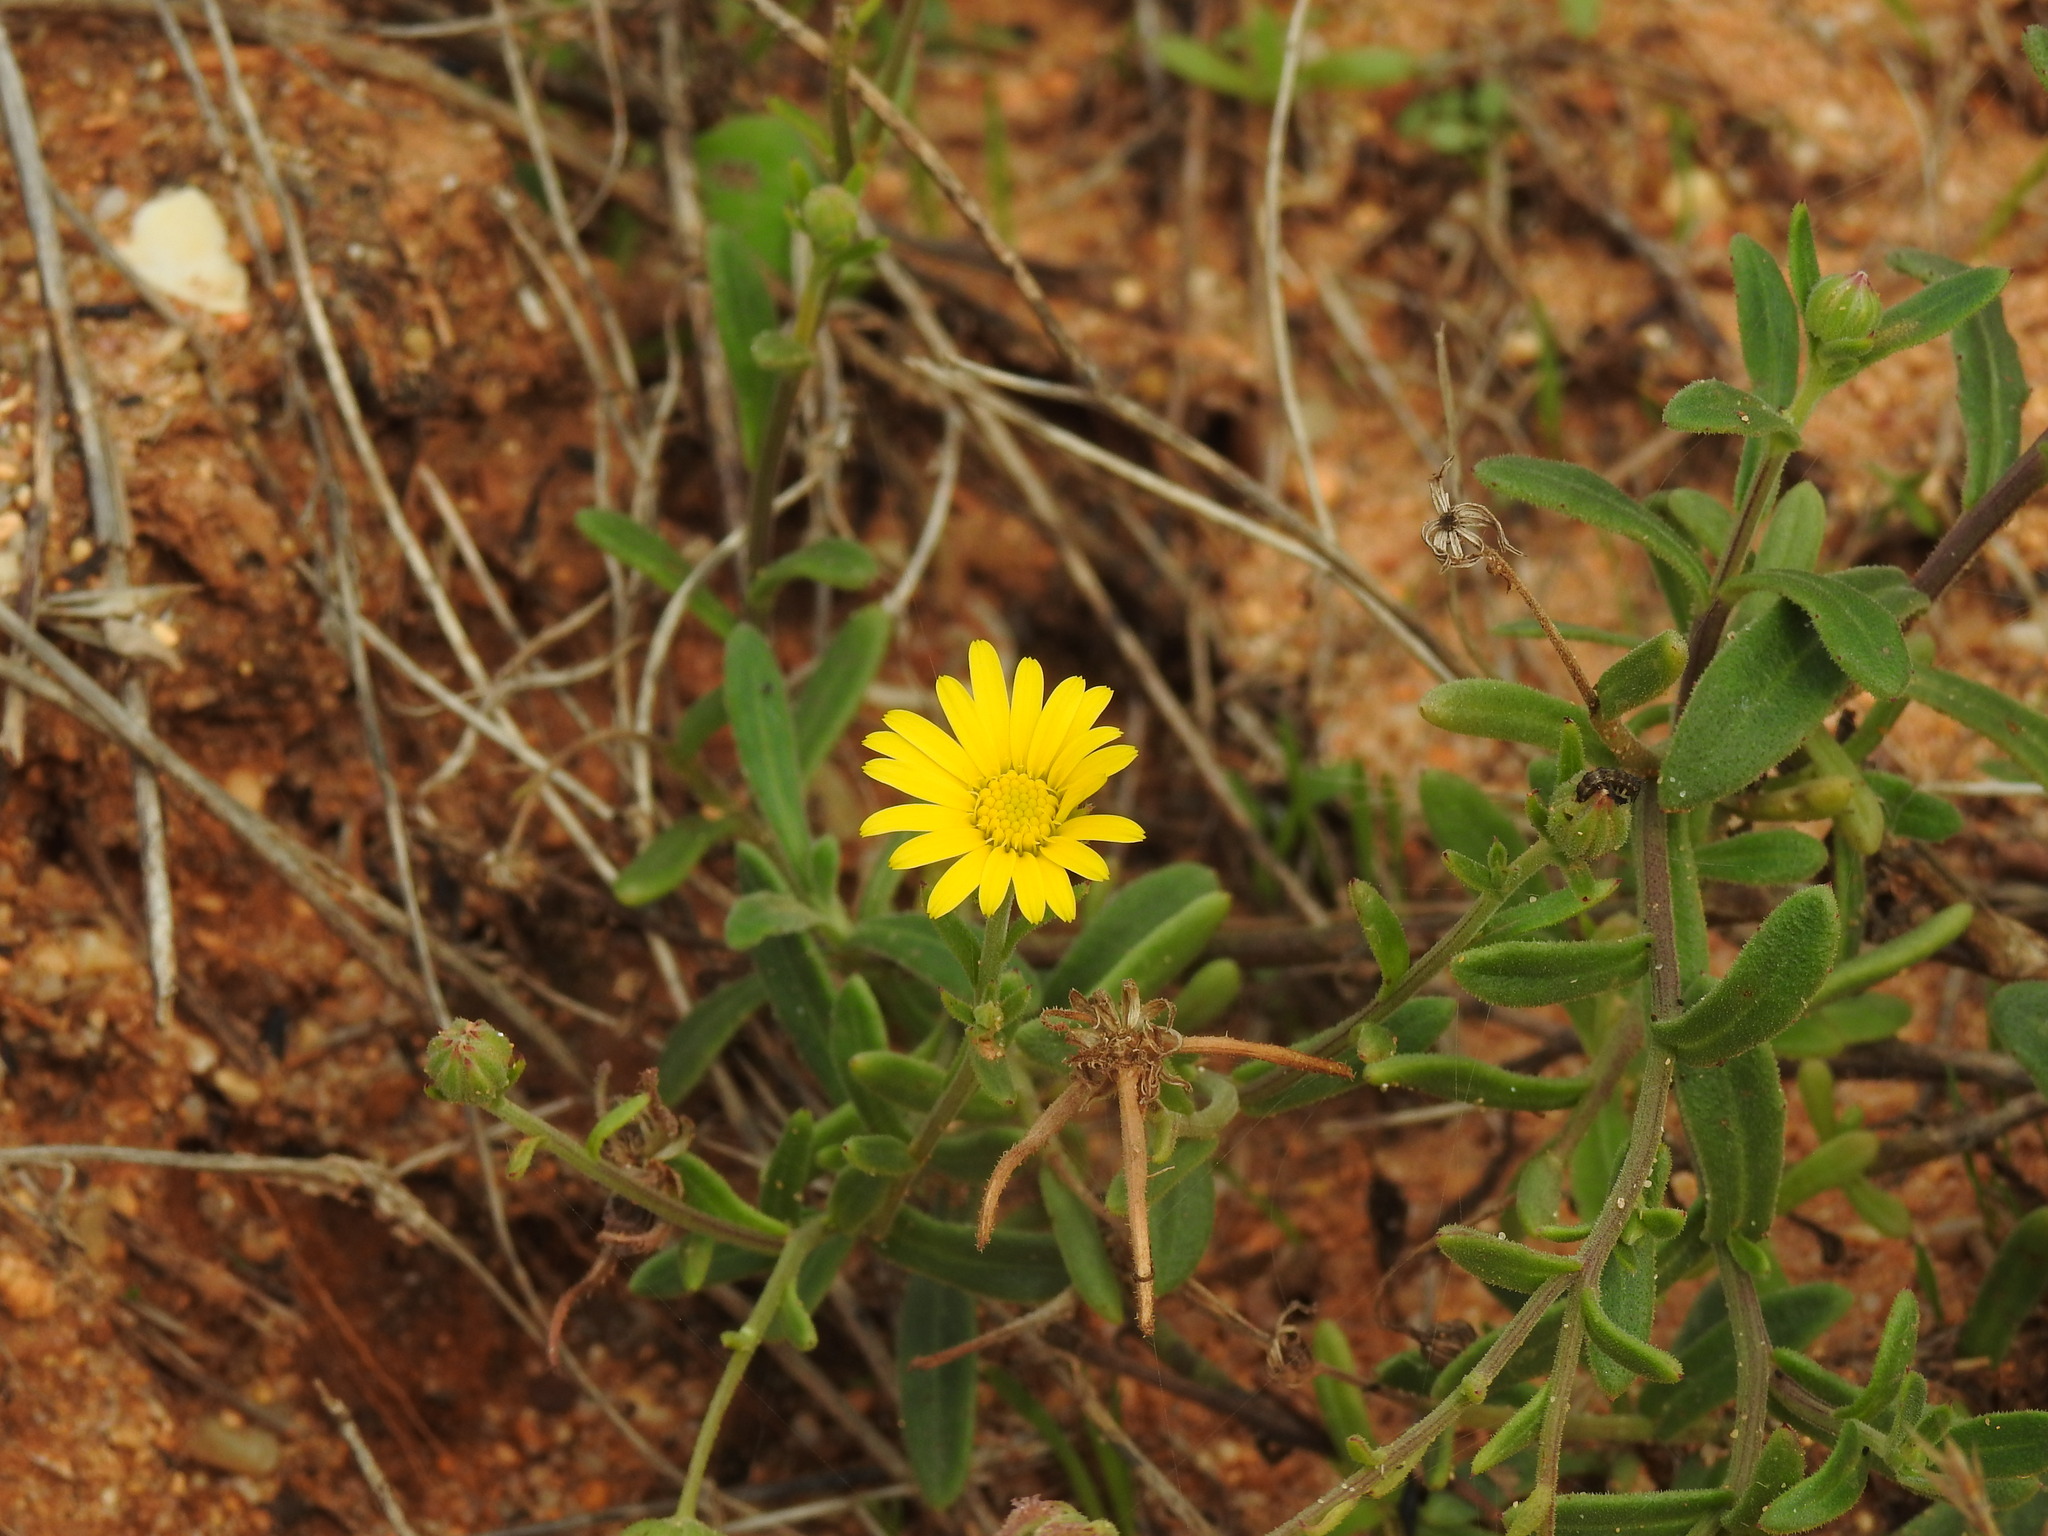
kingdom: Plantae
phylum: Tracheophyta
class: Magnoliopsida
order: Asterales
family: Asteraceae
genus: Calendula
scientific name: Calendula suffruticosa
